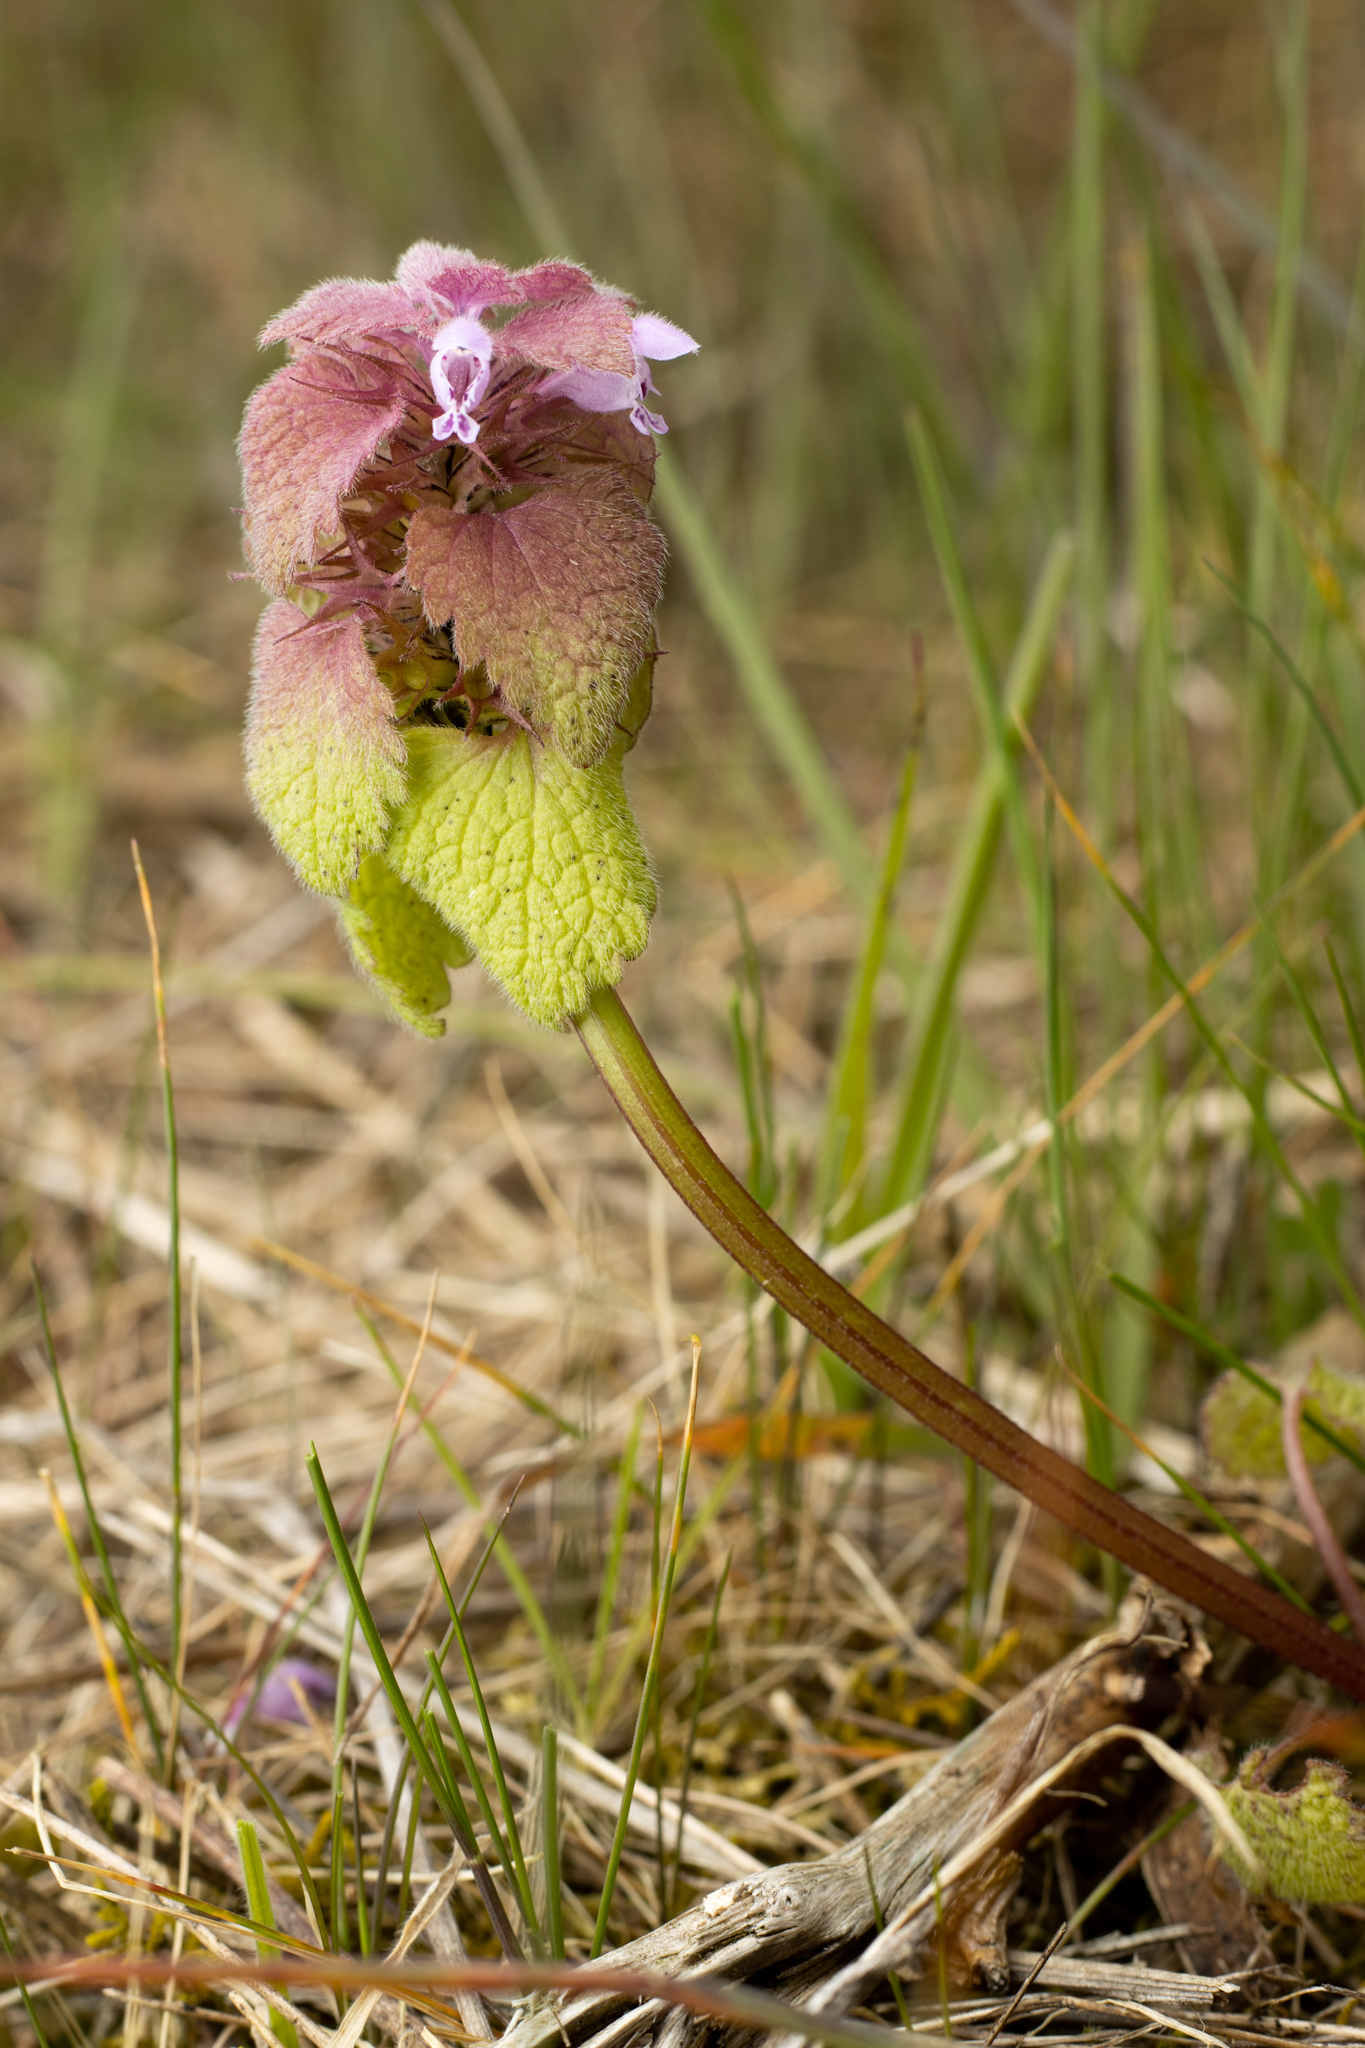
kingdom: Plantae
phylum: Tracheophyta
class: Magnoliopsida
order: Lamiales
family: Lamiaceae
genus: Lamium
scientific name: Lamium purpureum
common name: Red dead-nettle
